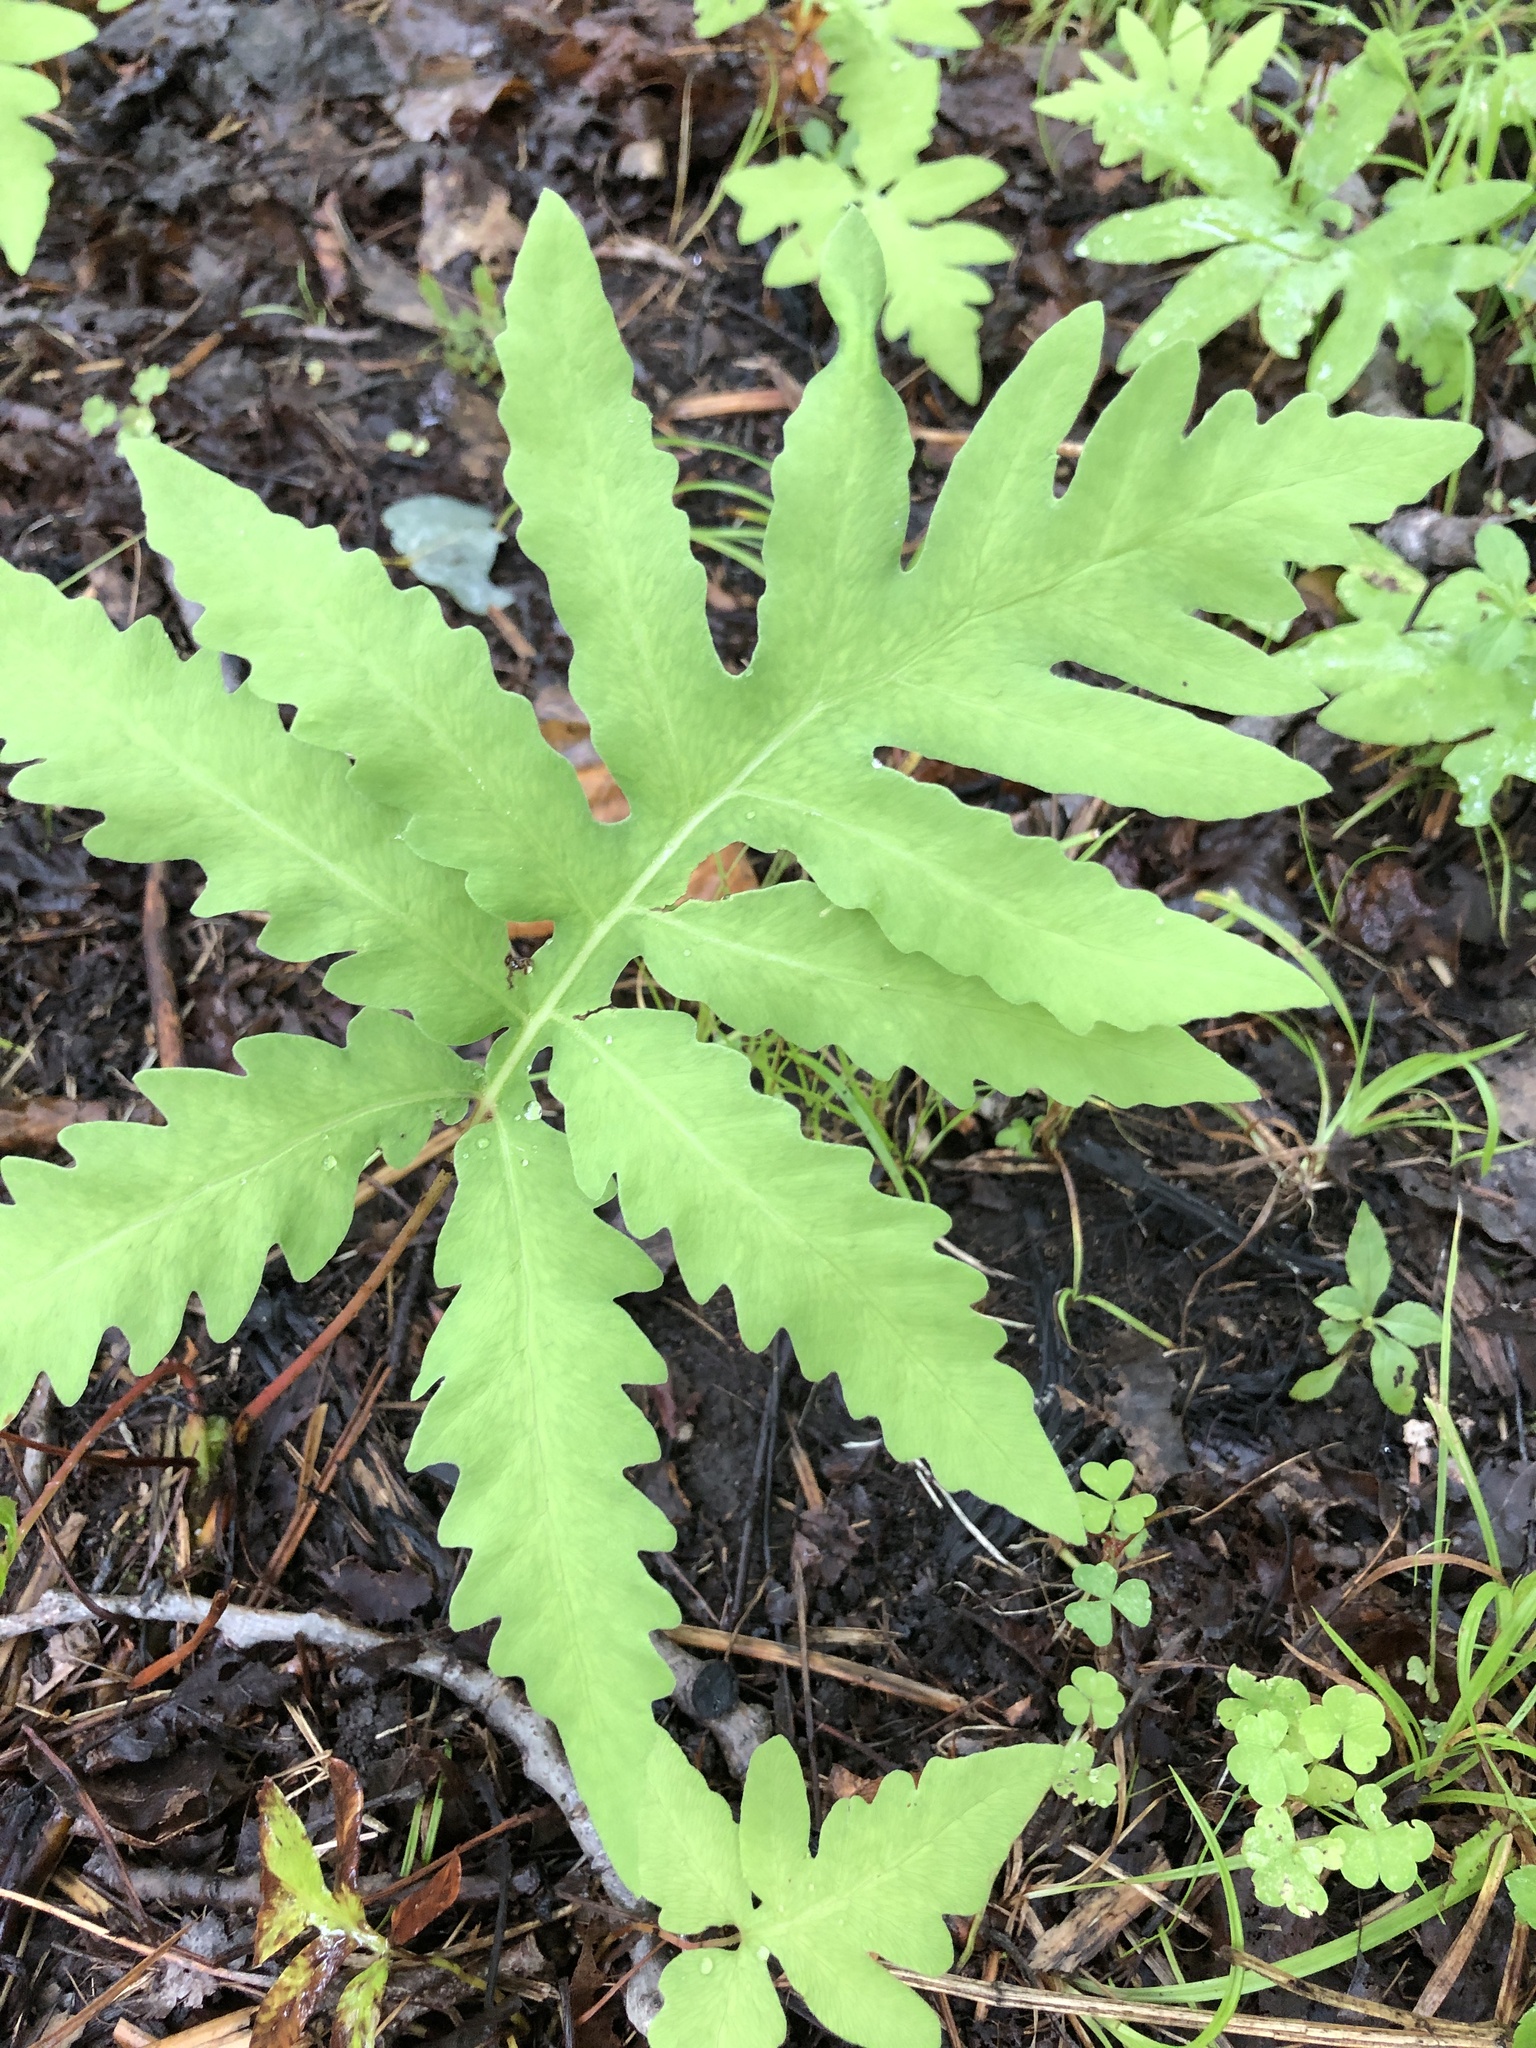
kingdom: Plantae
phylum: Tracheophyta
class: Polypodiopsida
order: Polypodiales
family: Onocleaceae
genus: Onoclea
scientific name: Onoclea sensibilis
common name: Sensitive fern
